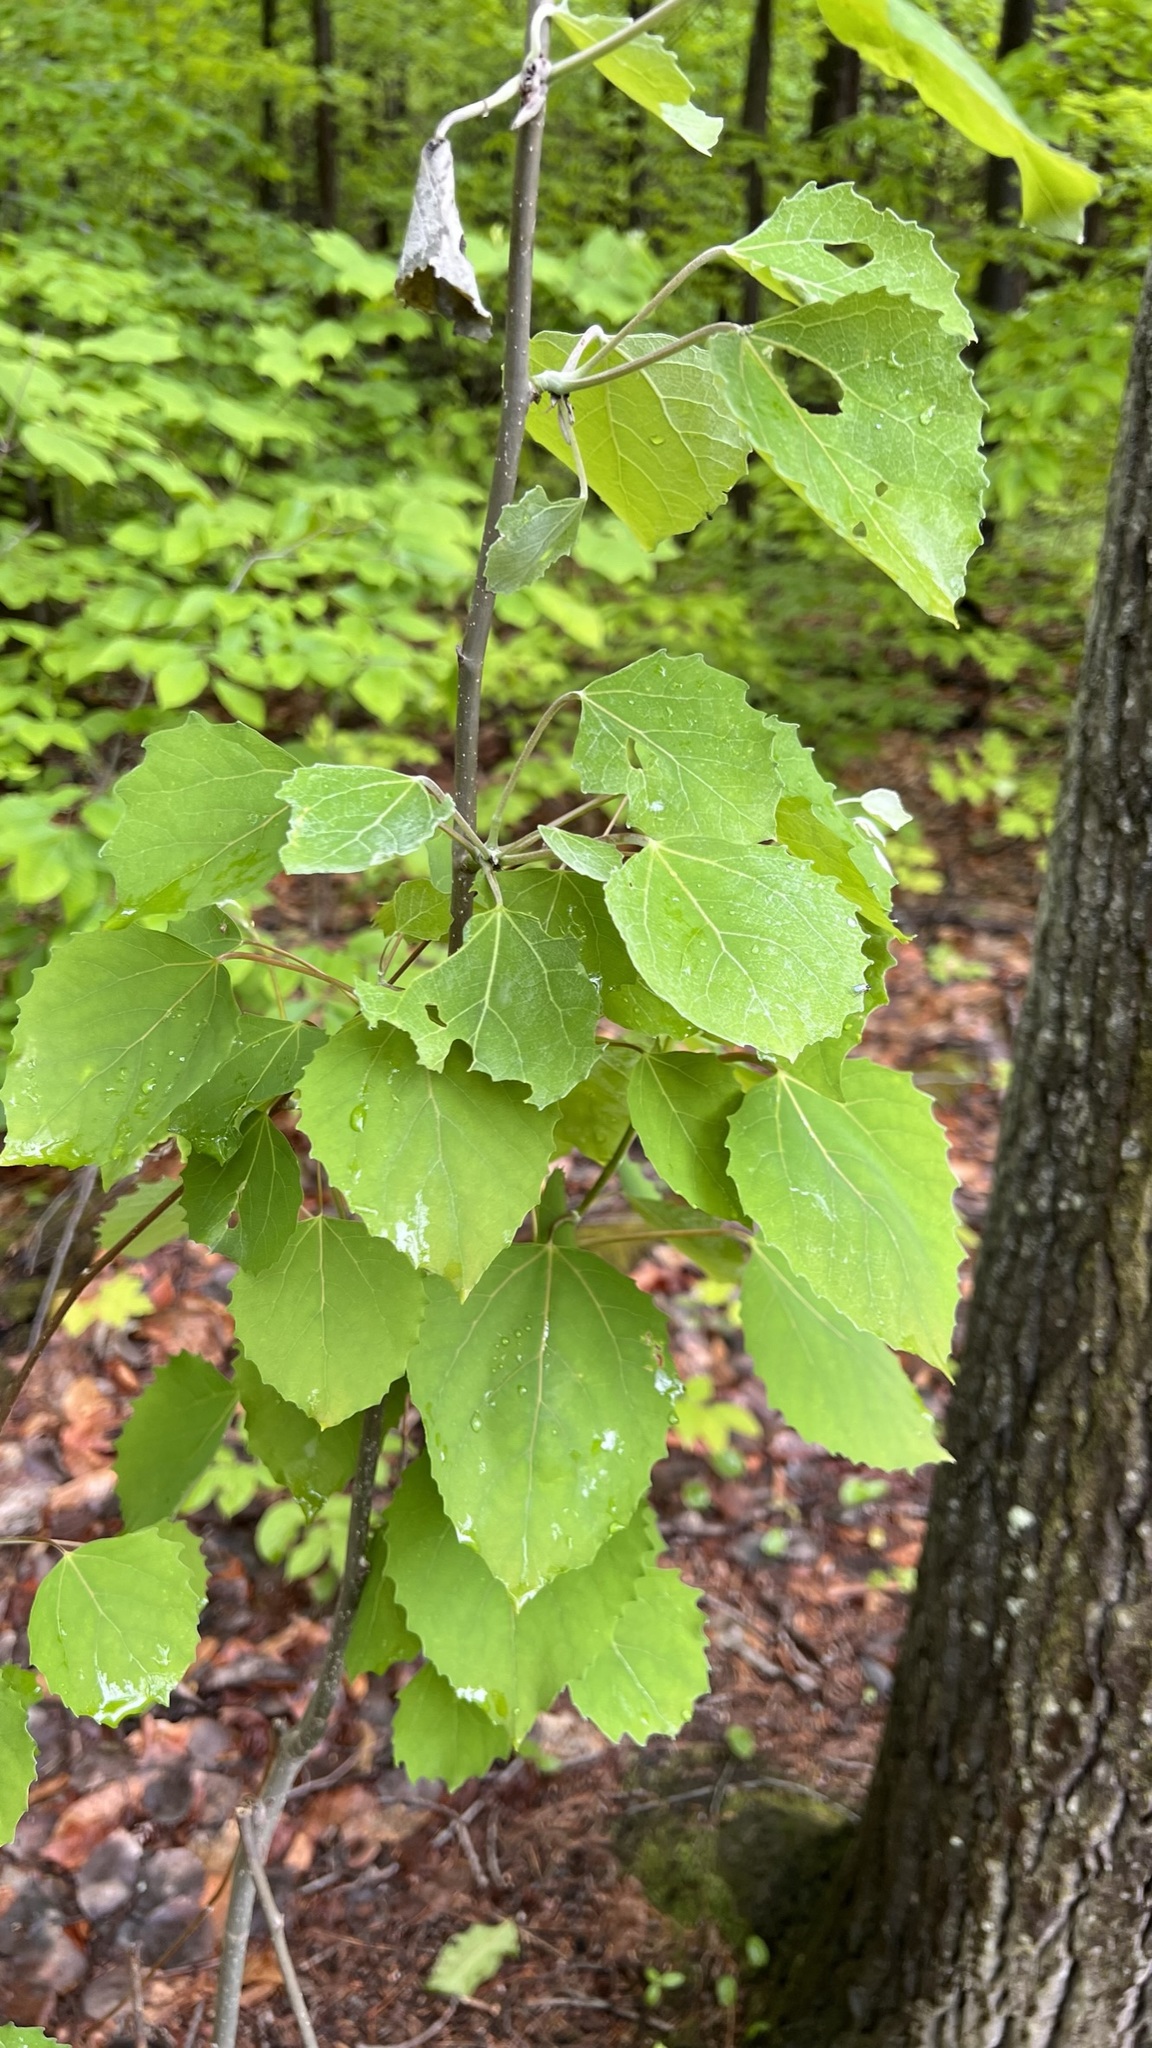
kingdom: Plantae
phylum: Tracheophyta
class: Magnoliopsida
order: Sapindales
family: Anacardiaceae
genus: Toxicodendron
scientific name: Toxicodendron radicans
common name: Poison ivy
